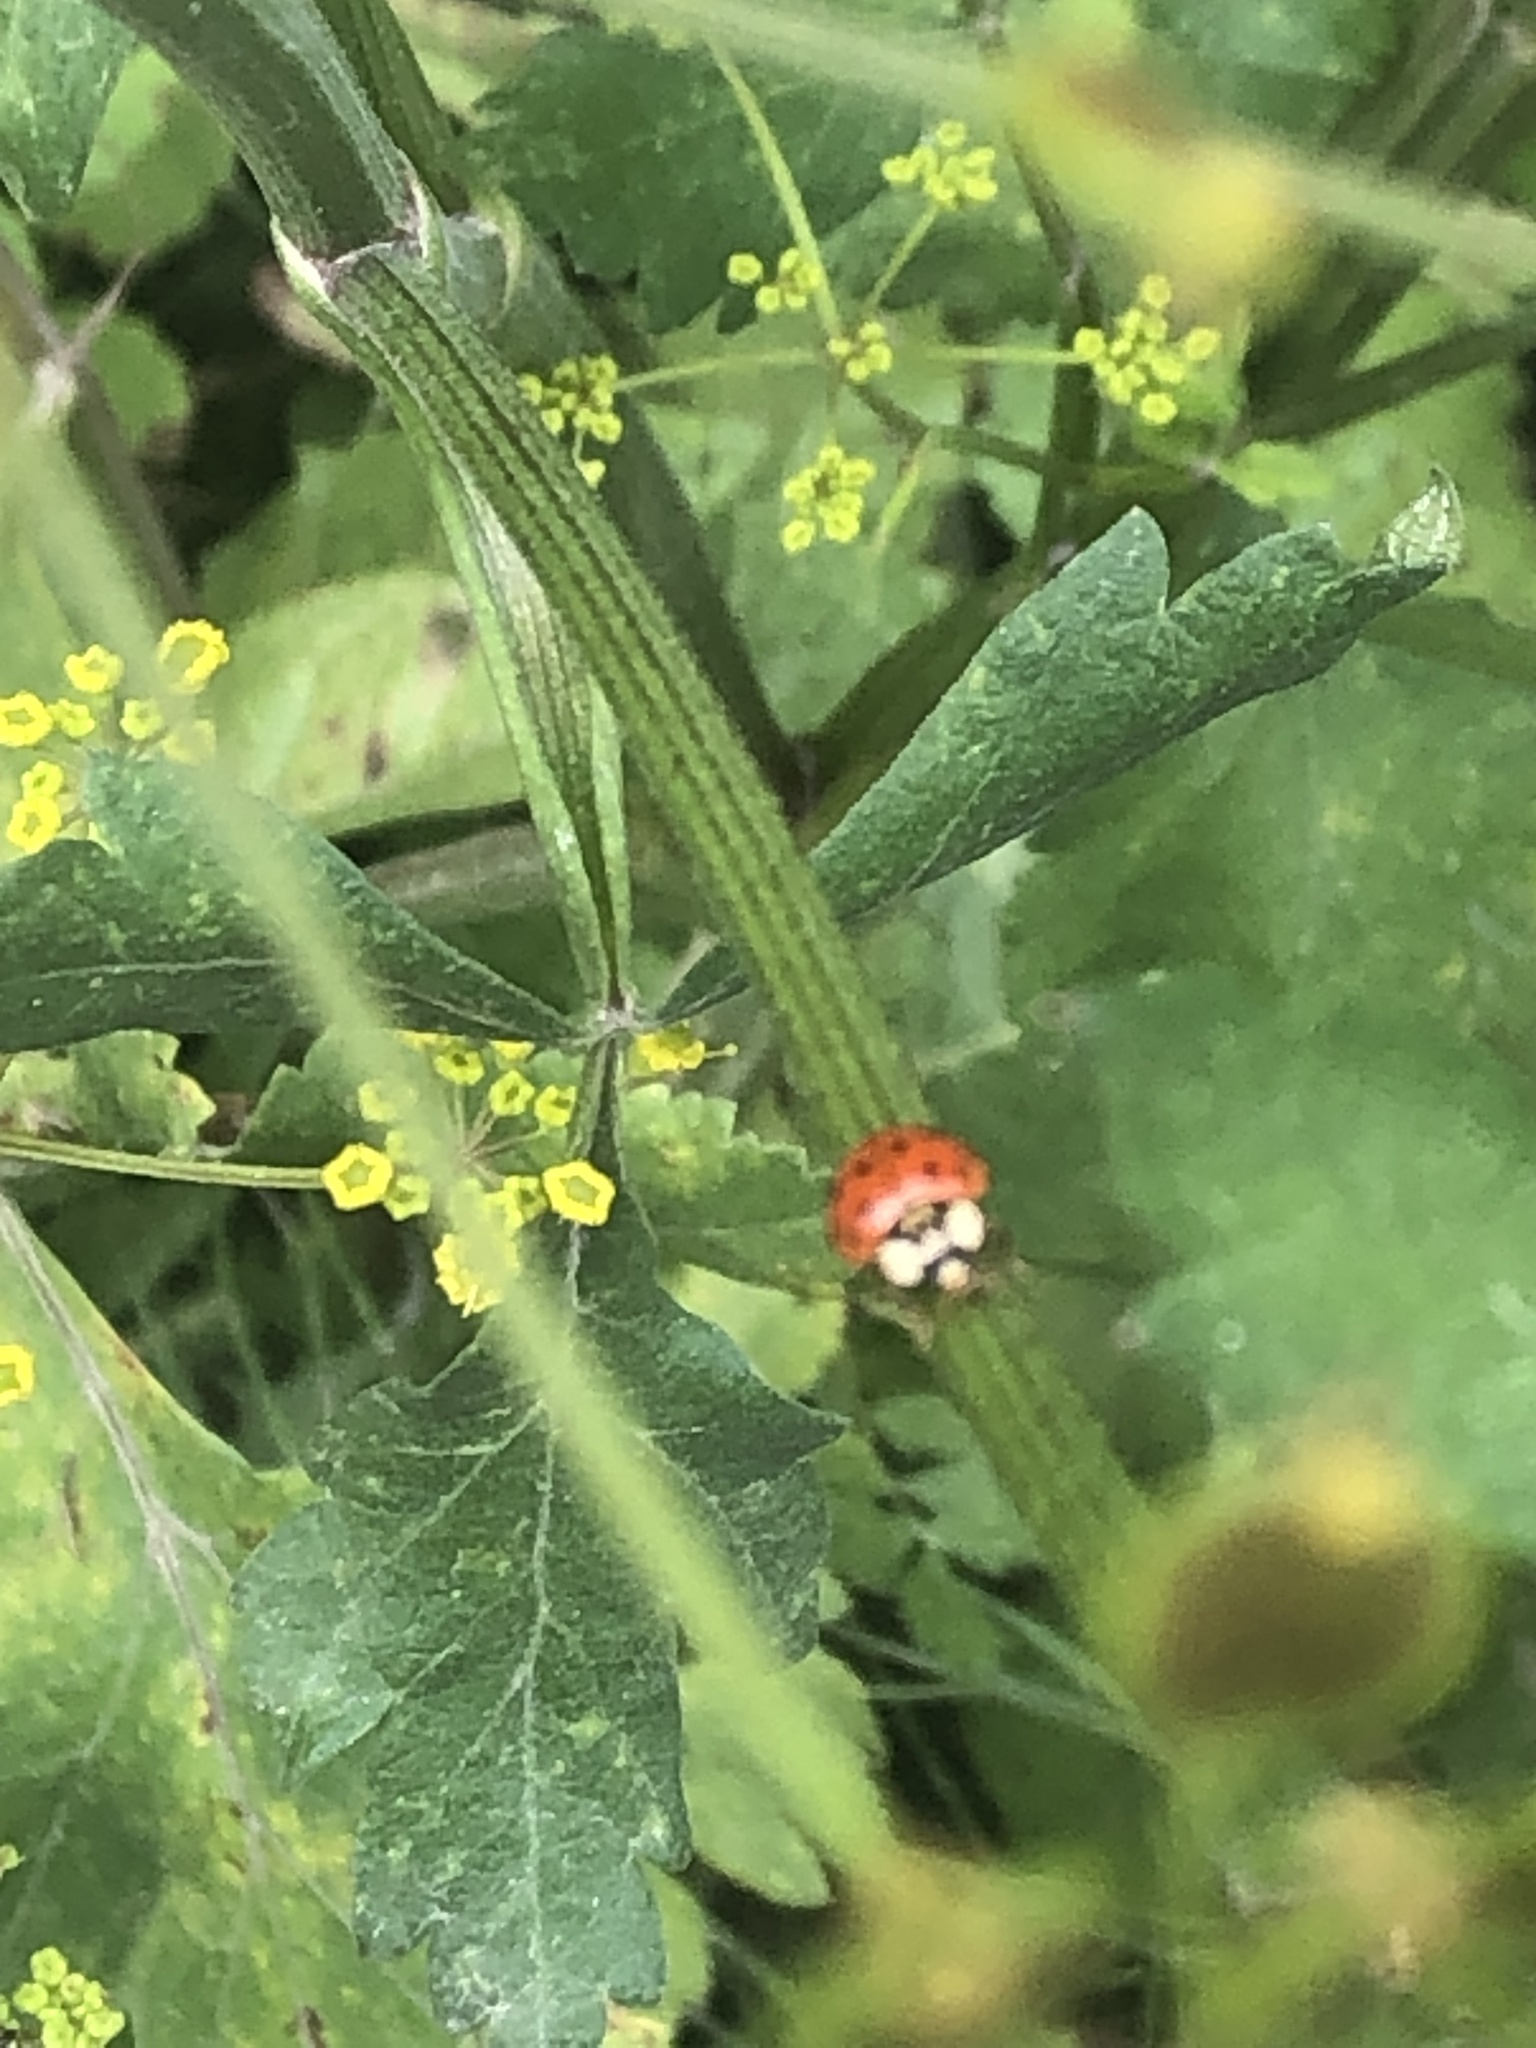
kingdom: Animalia
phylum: Arthropoda
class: Insecta
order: Coleoptera
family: Coccinellidae
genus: Harmonia
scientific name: Harmonia axyridis
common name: Harlequin ladybird
